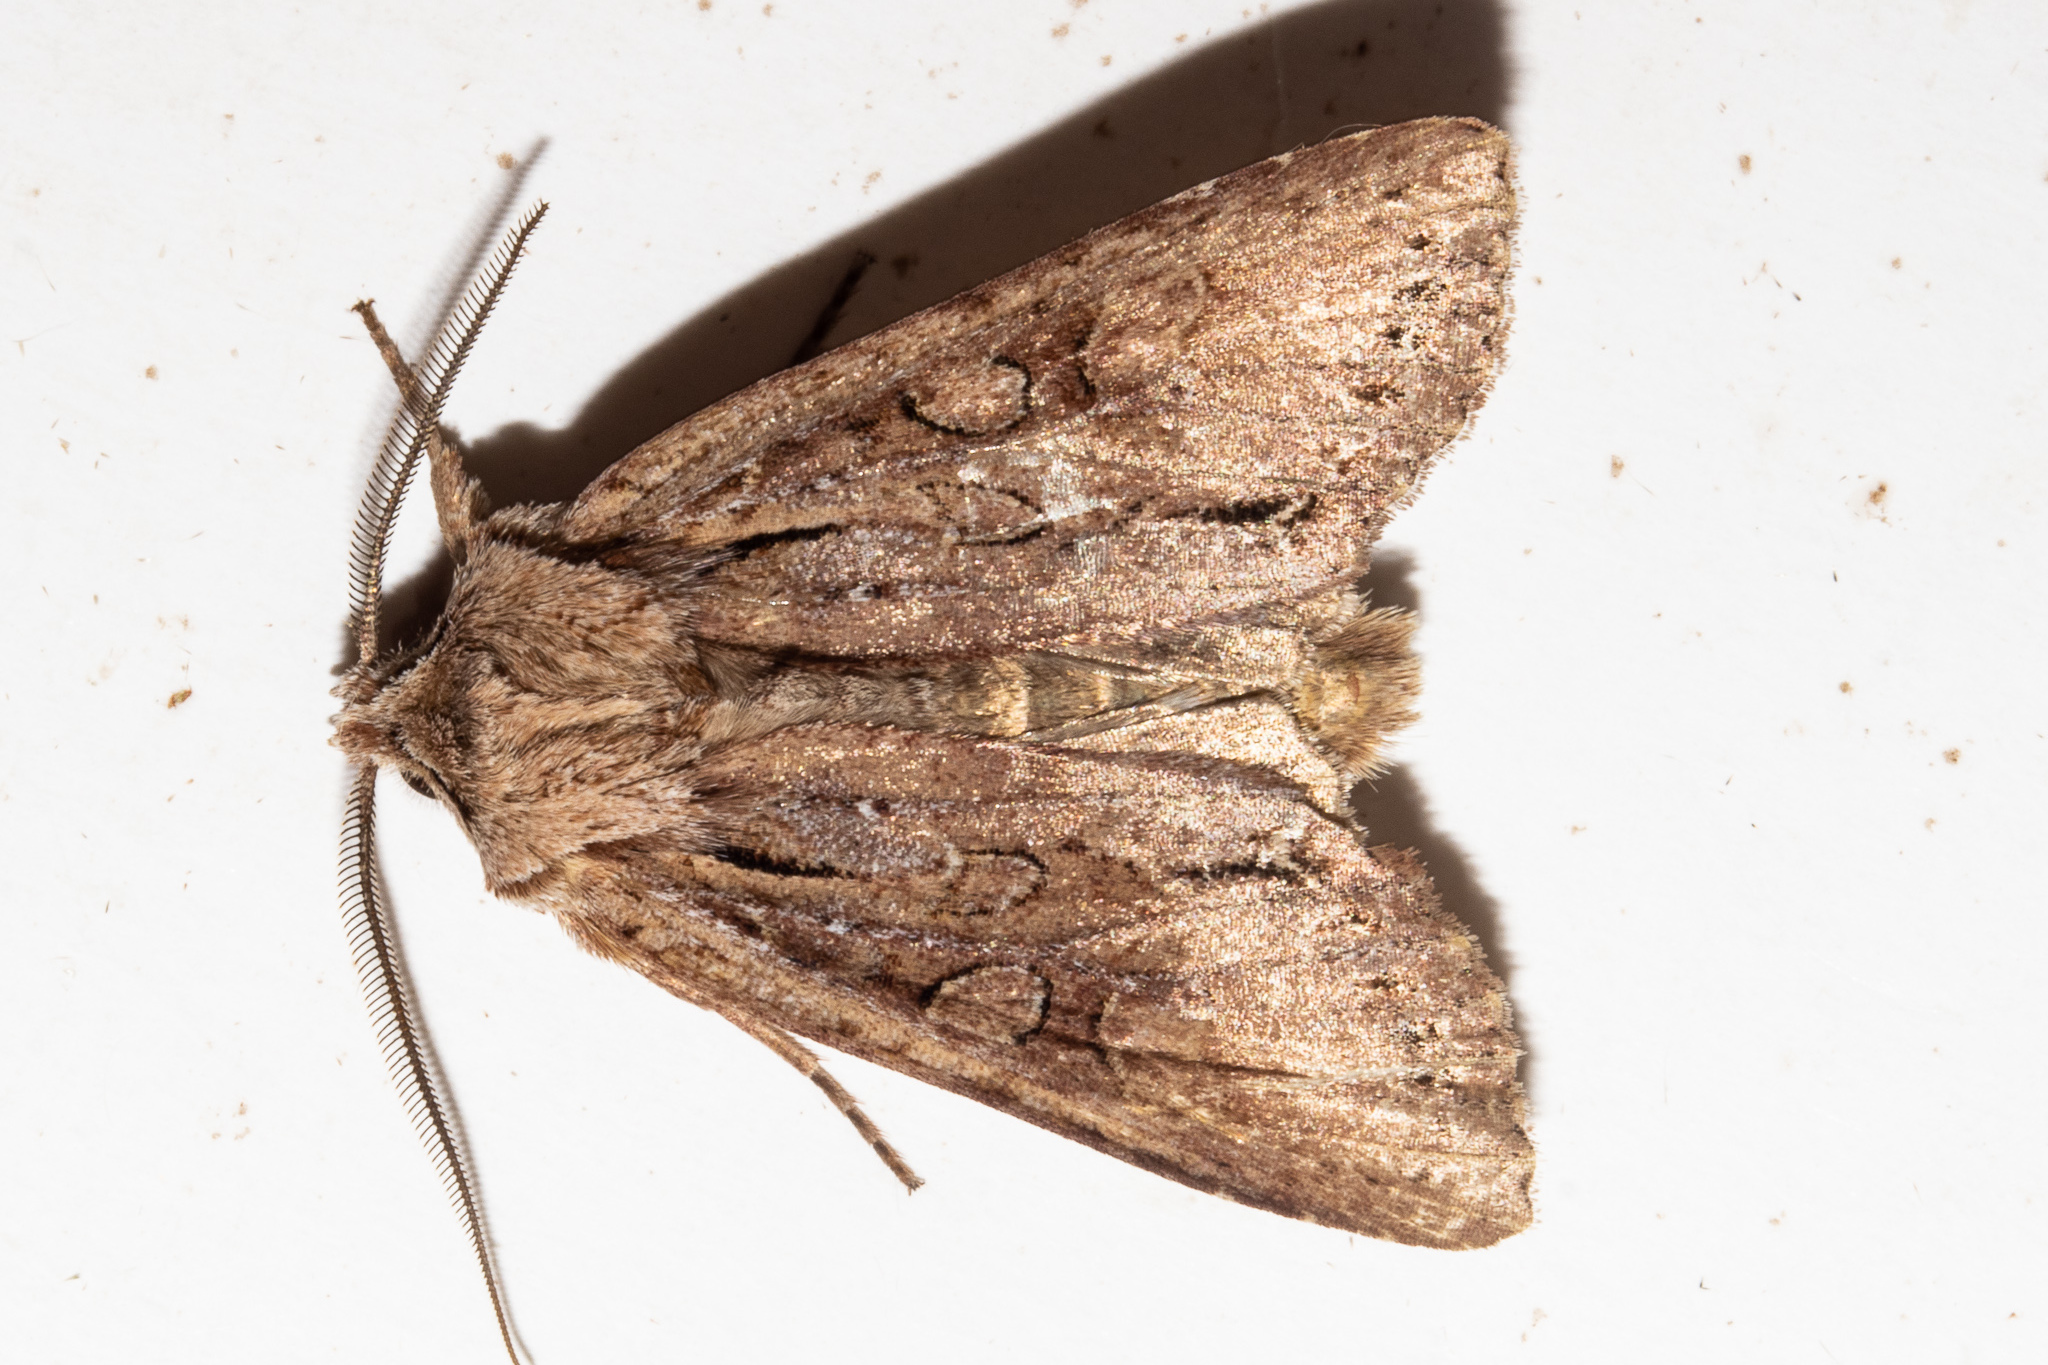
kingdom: Animalia
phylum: Arthropoda
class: Insecta
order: Lepidoptera
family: Noctuidae
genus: Ichneutica
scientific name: Ichneutica
